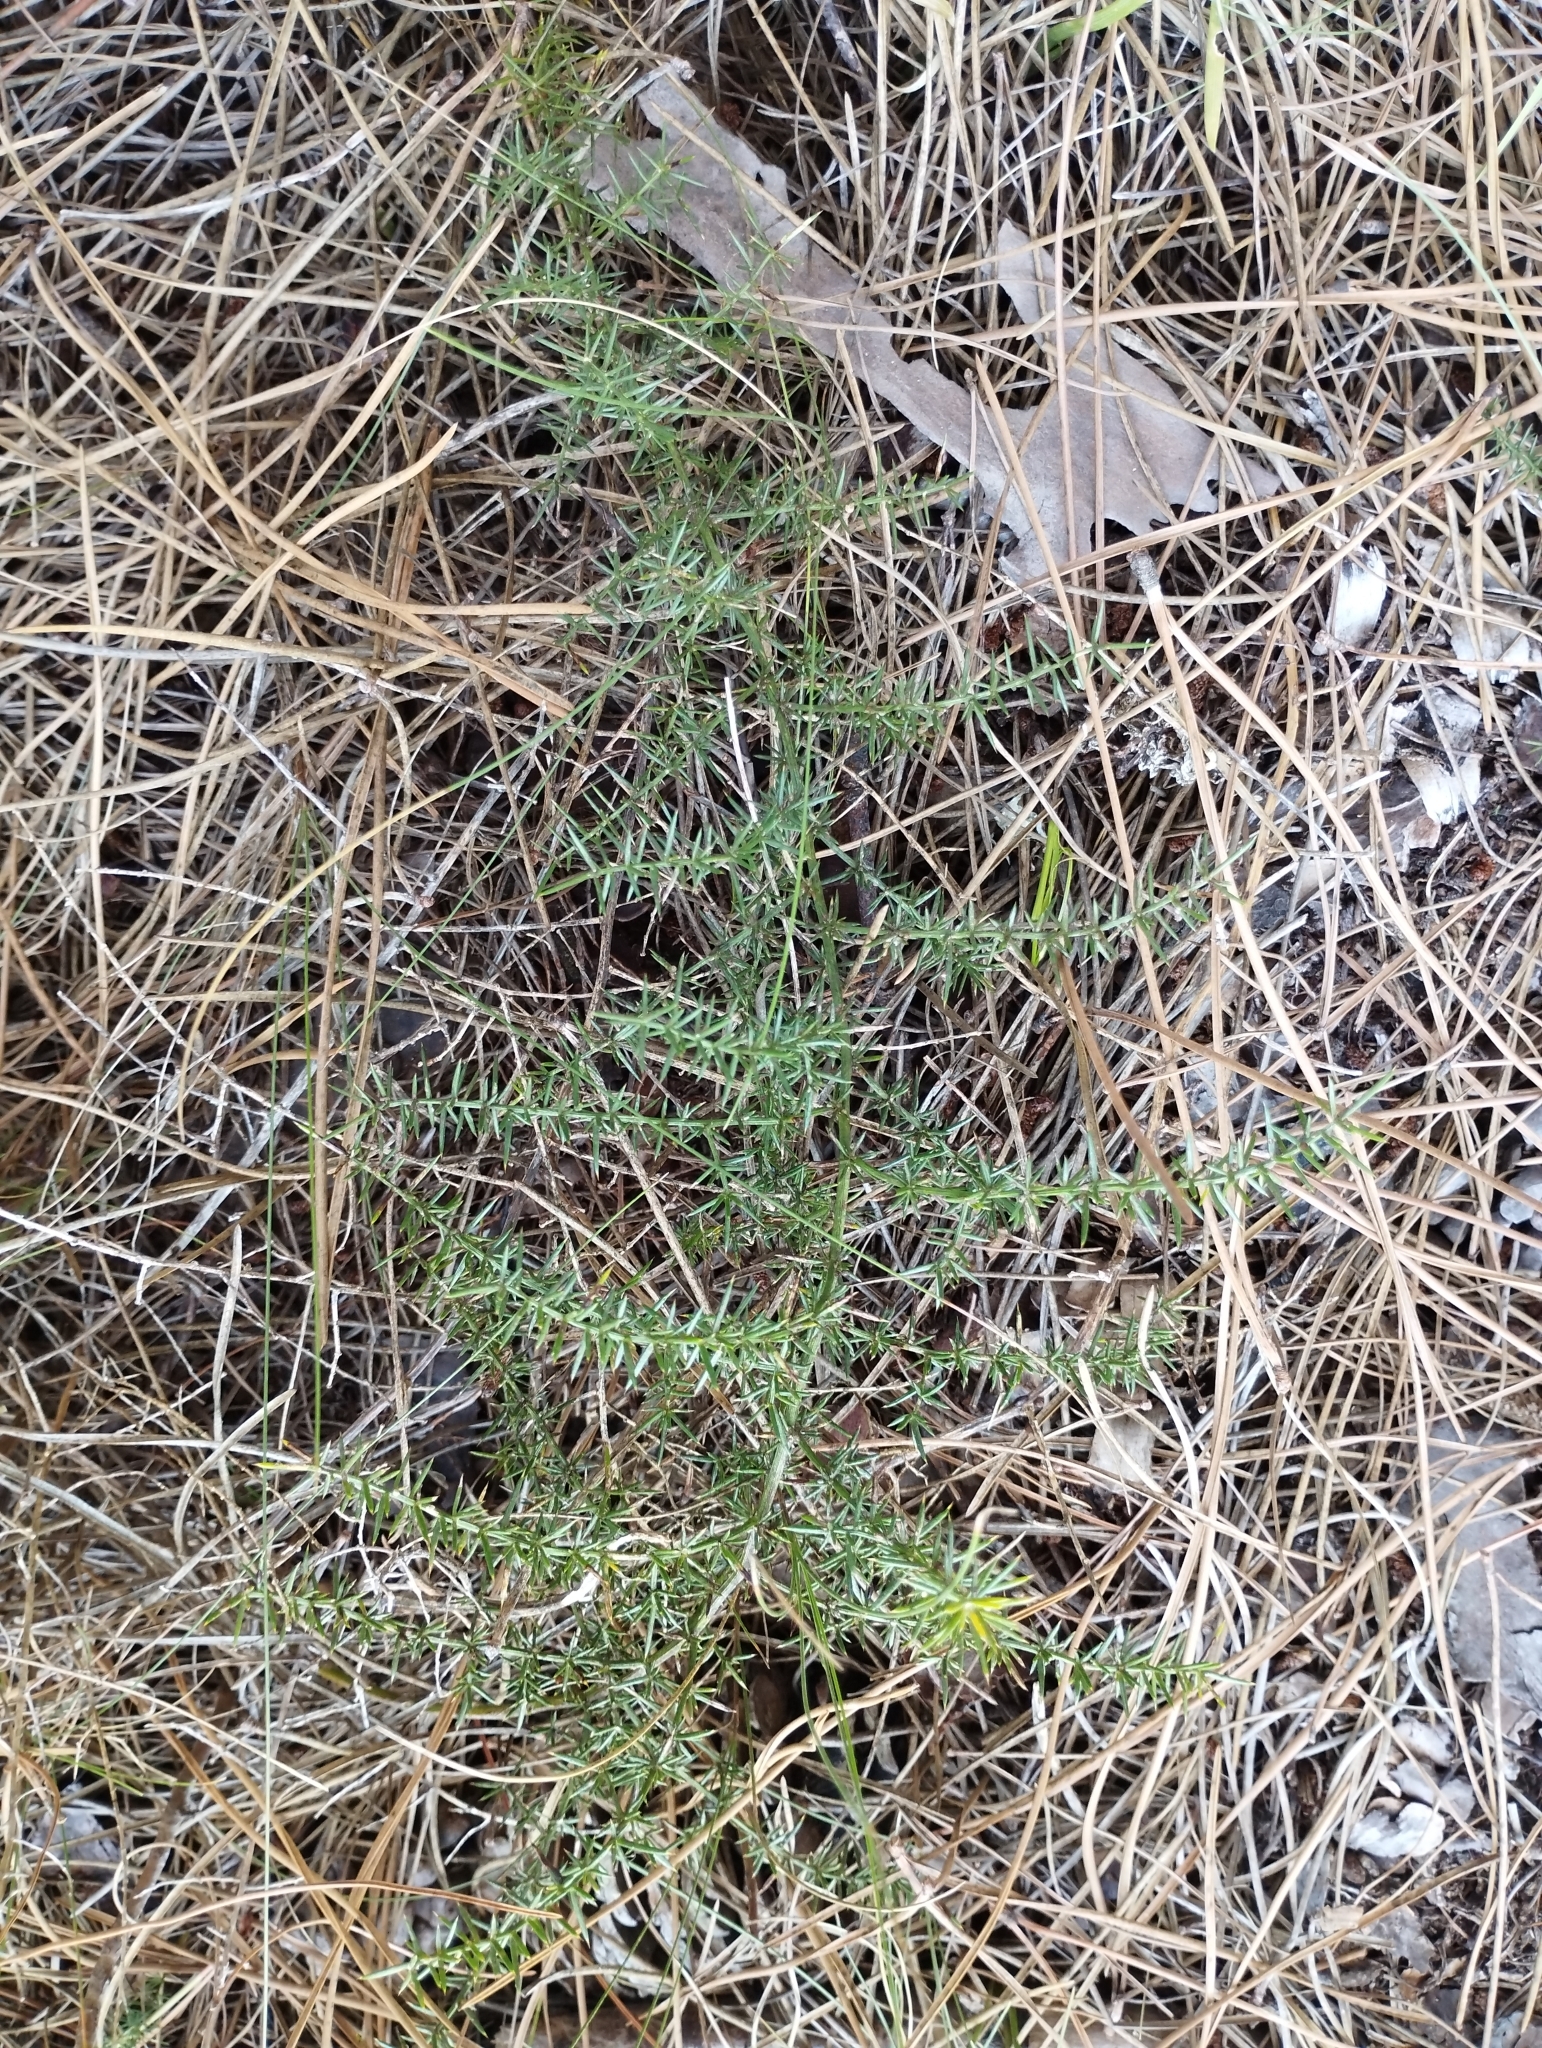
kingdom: Plantae
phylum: Tracheophyta
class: Liliopsida
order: Asparagales
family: Asparagaceae
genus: Asparagus
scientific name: Asparagus aphyllus
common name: Mediterranean asparagus
